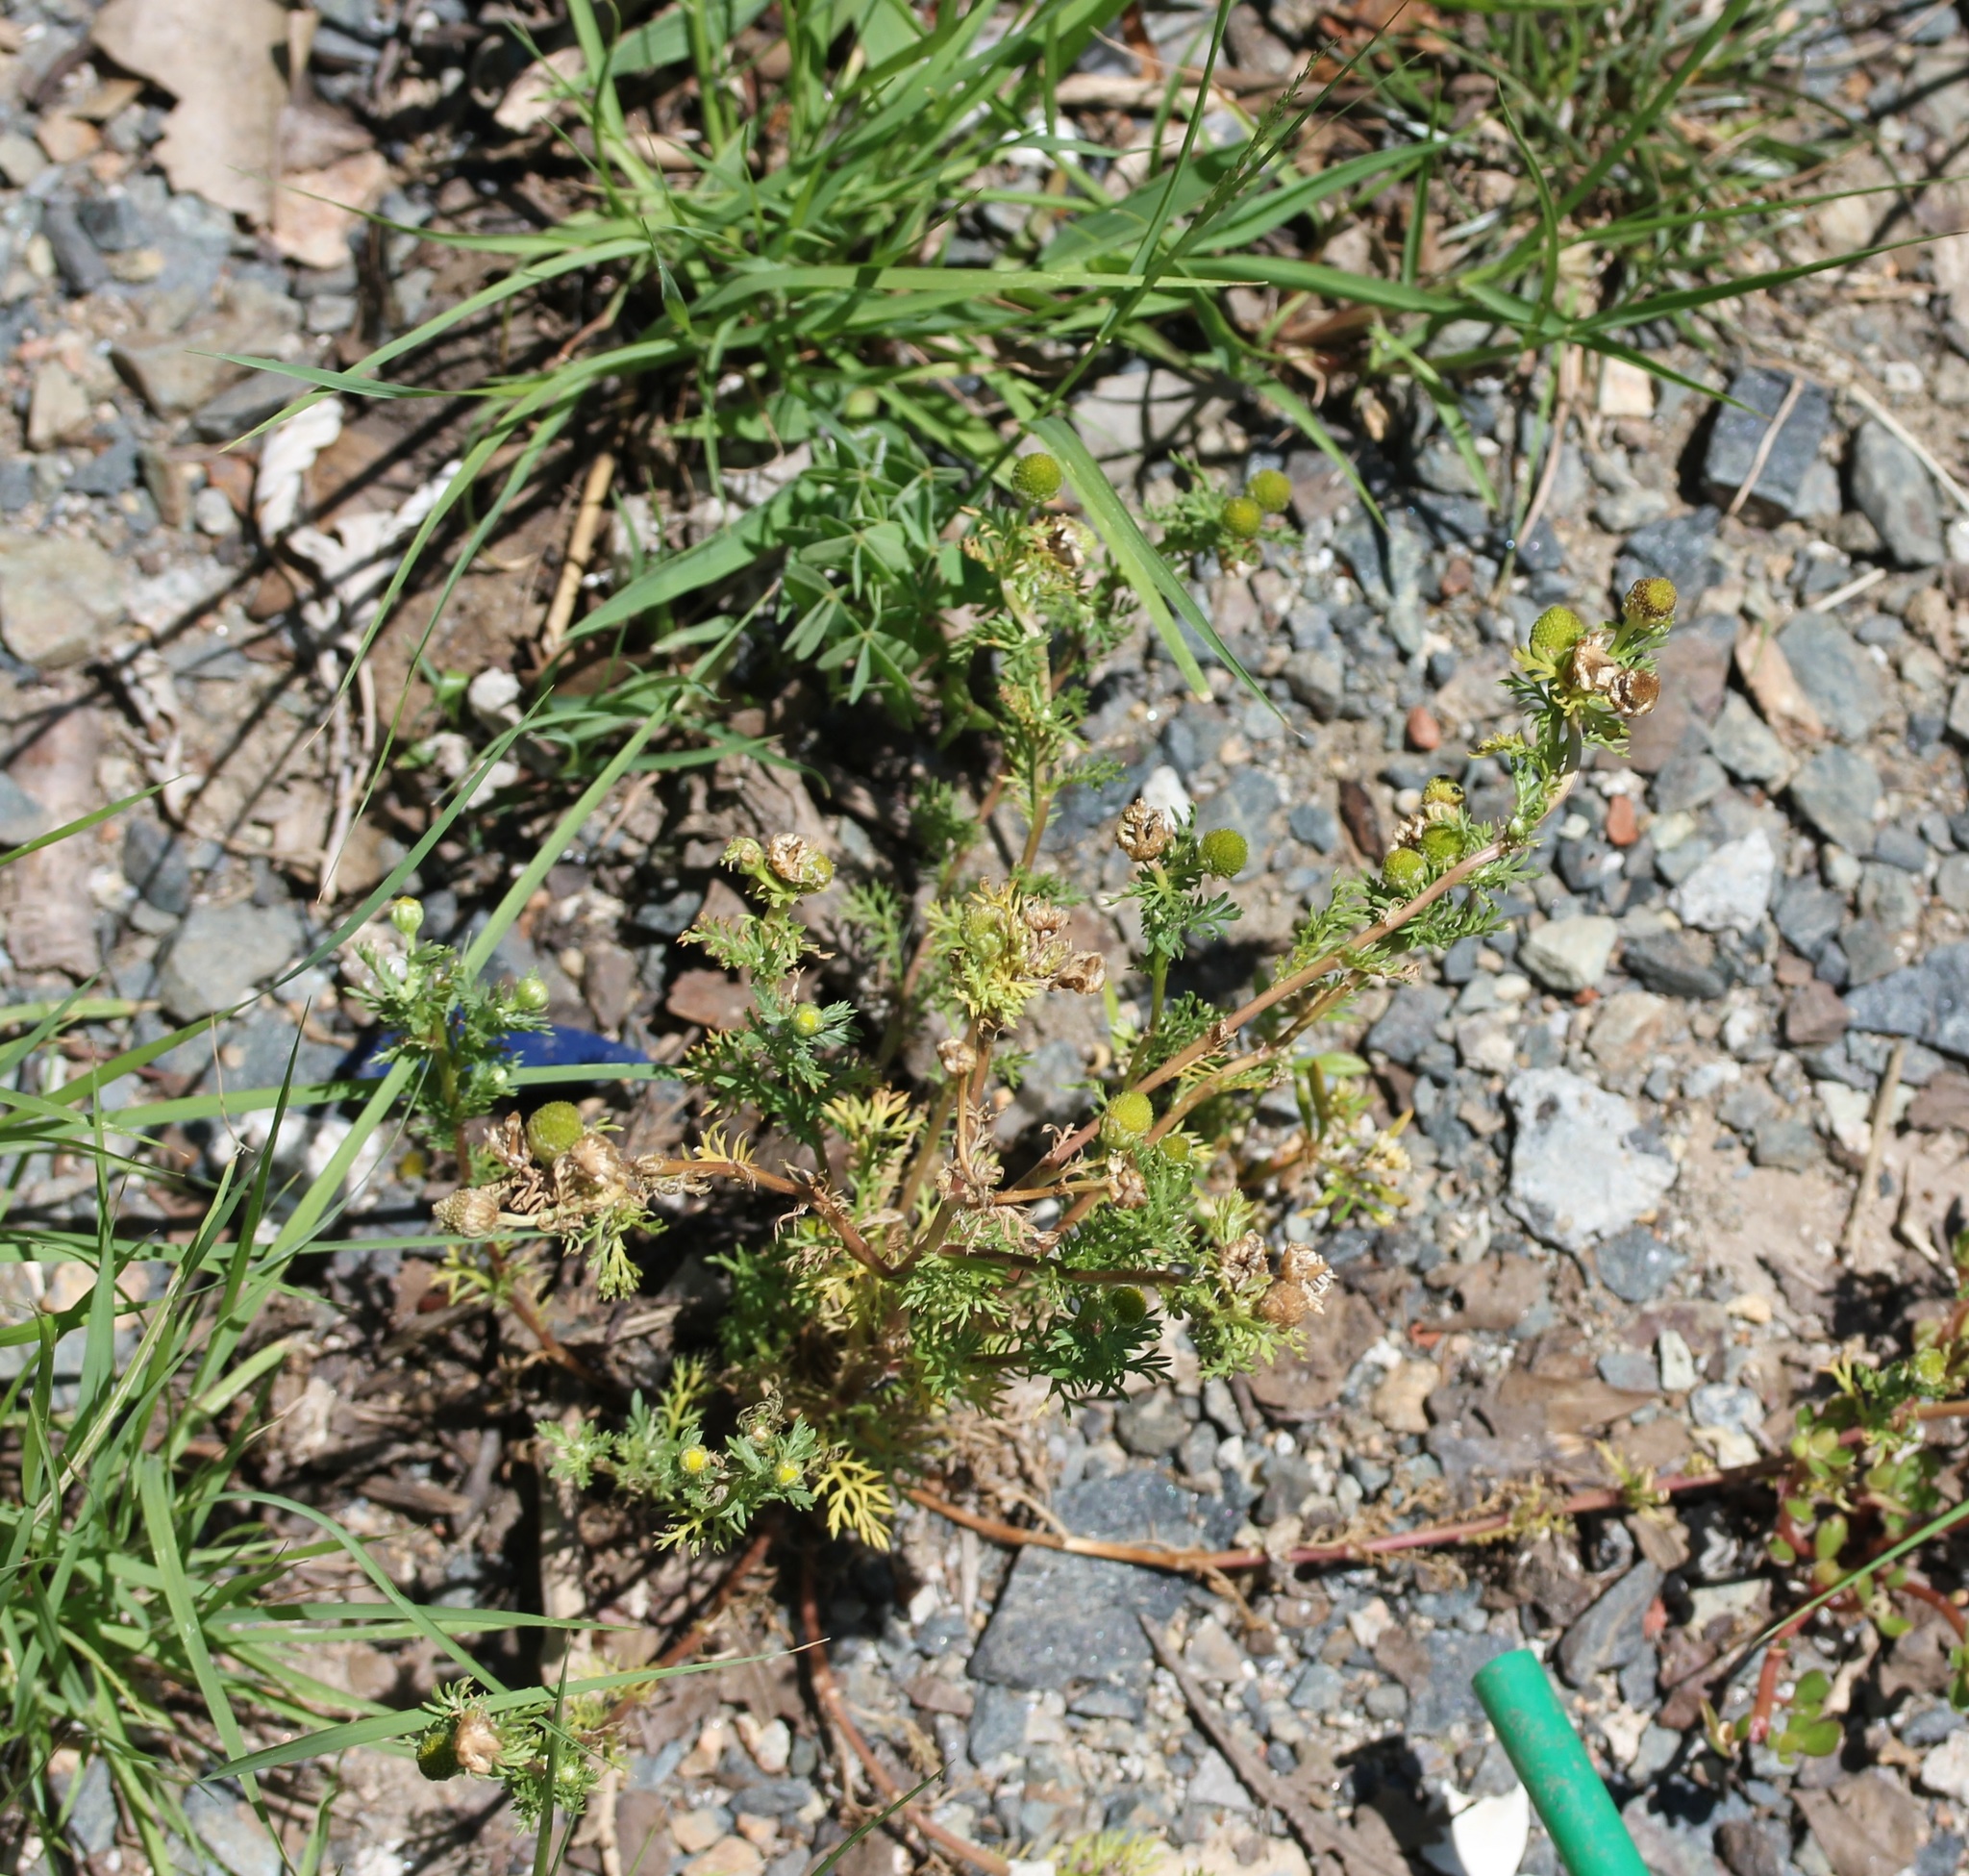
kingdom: Plantae
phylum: Tracheophyta
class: Magnoliopsida
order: Asterales
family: Asteraceae
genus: Matricaria
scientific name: Matricaria discoidea
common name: Disc mayweed
